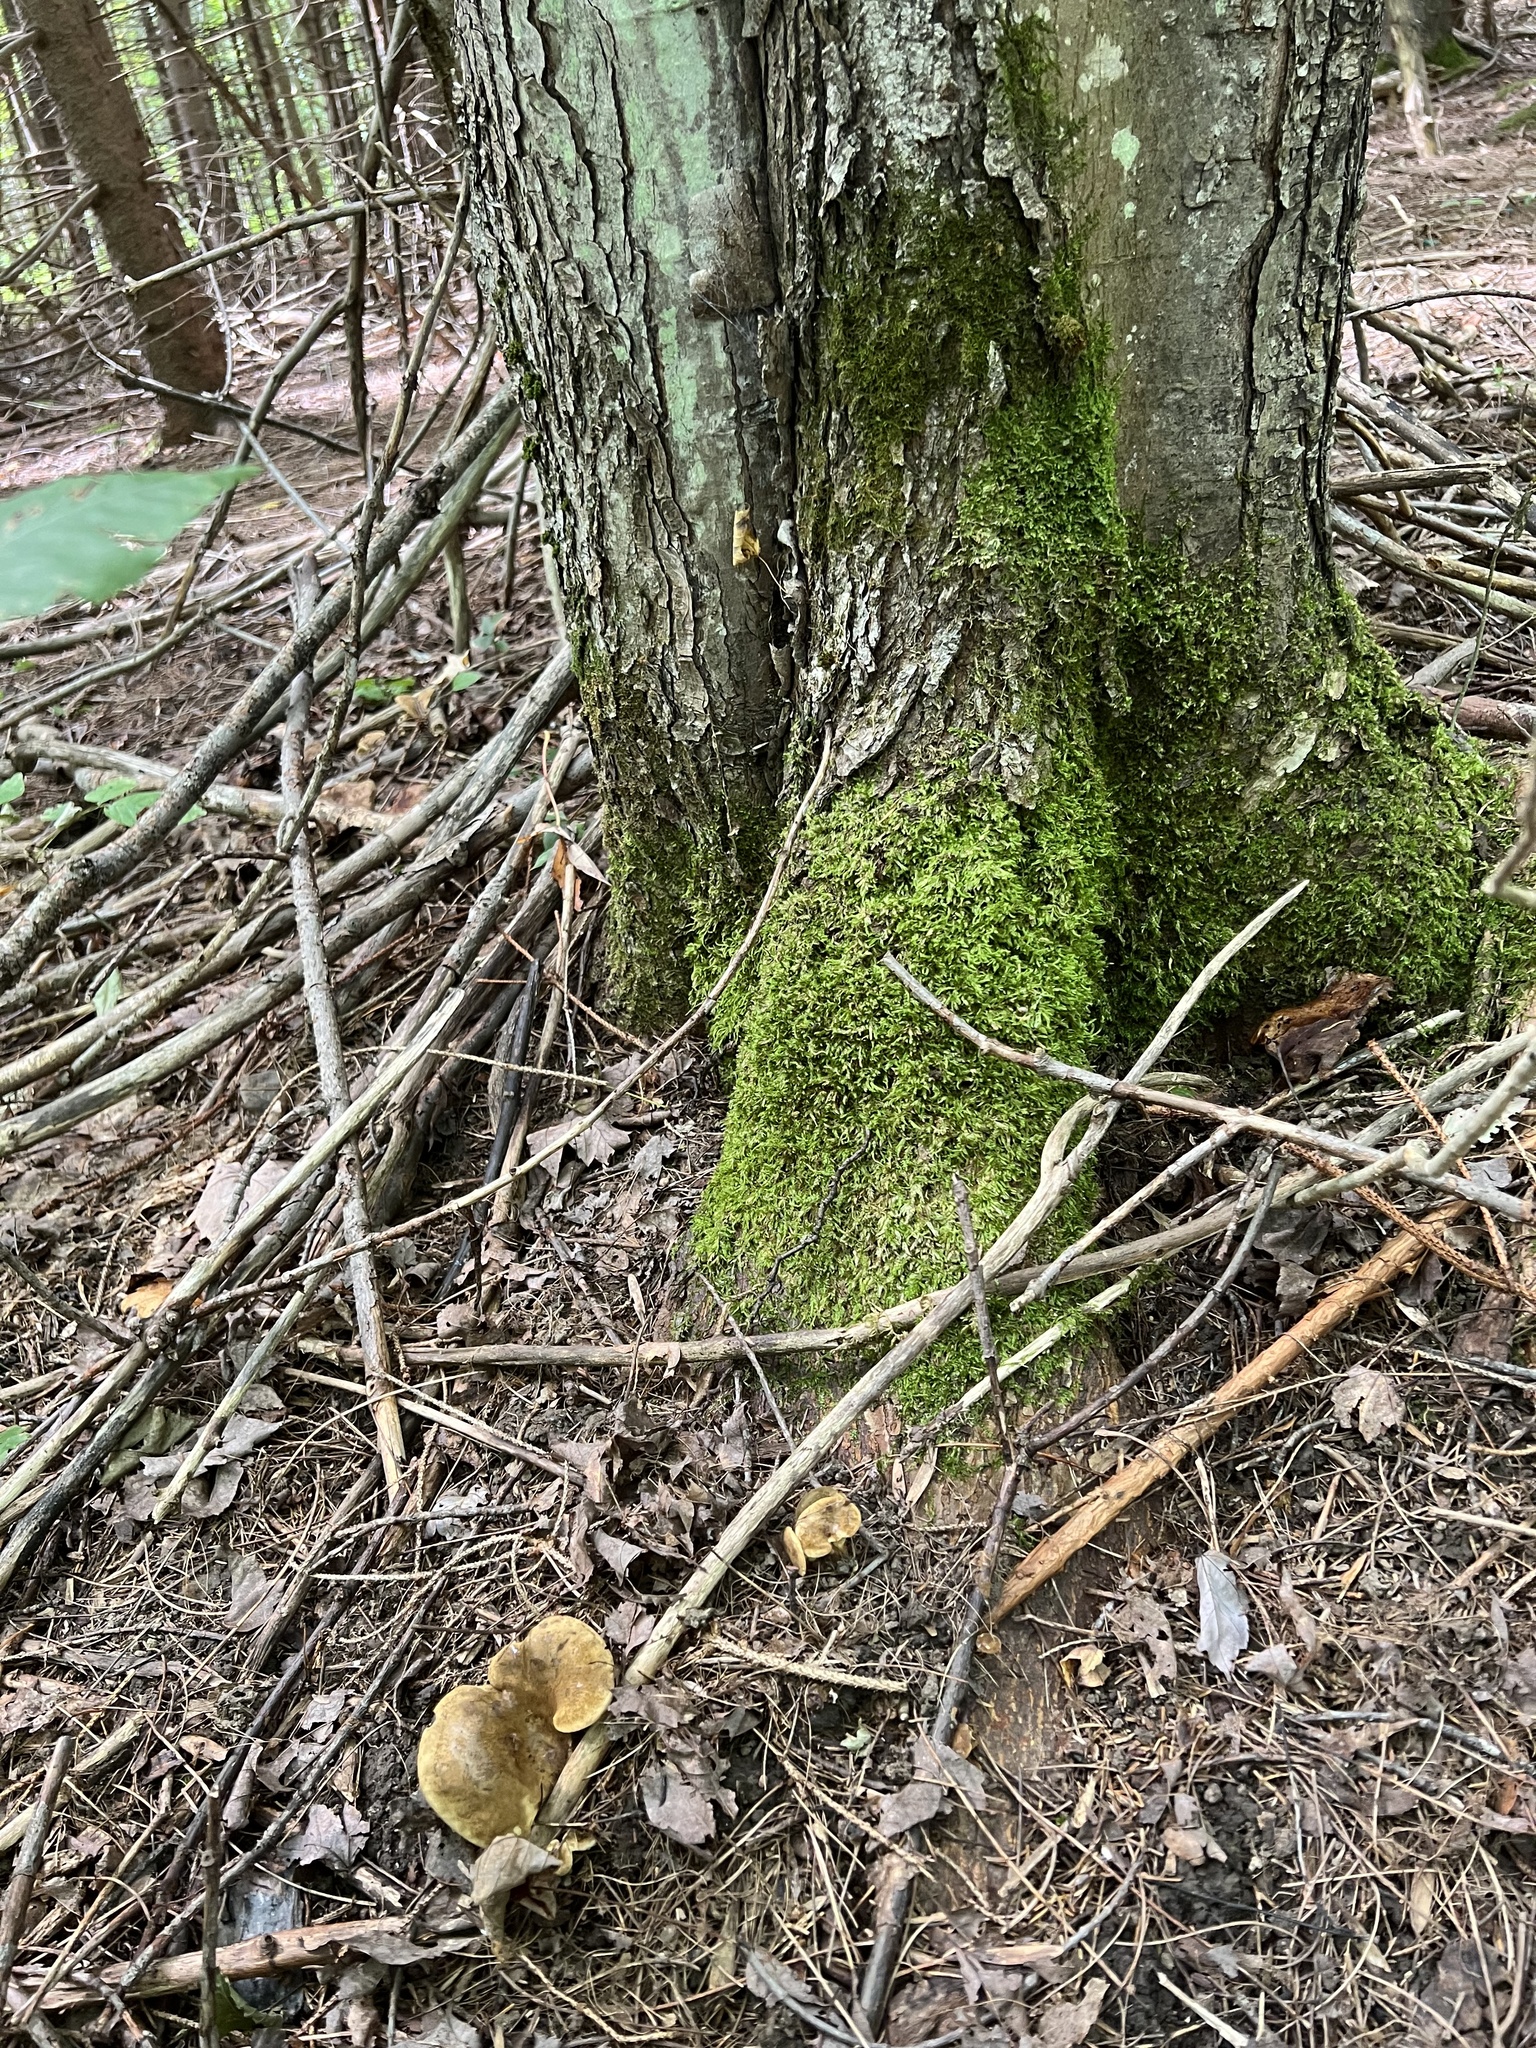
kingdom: Fungi
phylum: Basidiomycota
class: Agaricomycetes
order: Boletales
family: Boletinellaceae
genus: Boletinellus
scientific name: Boletinellus merulioides
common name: Ash tree bolete
